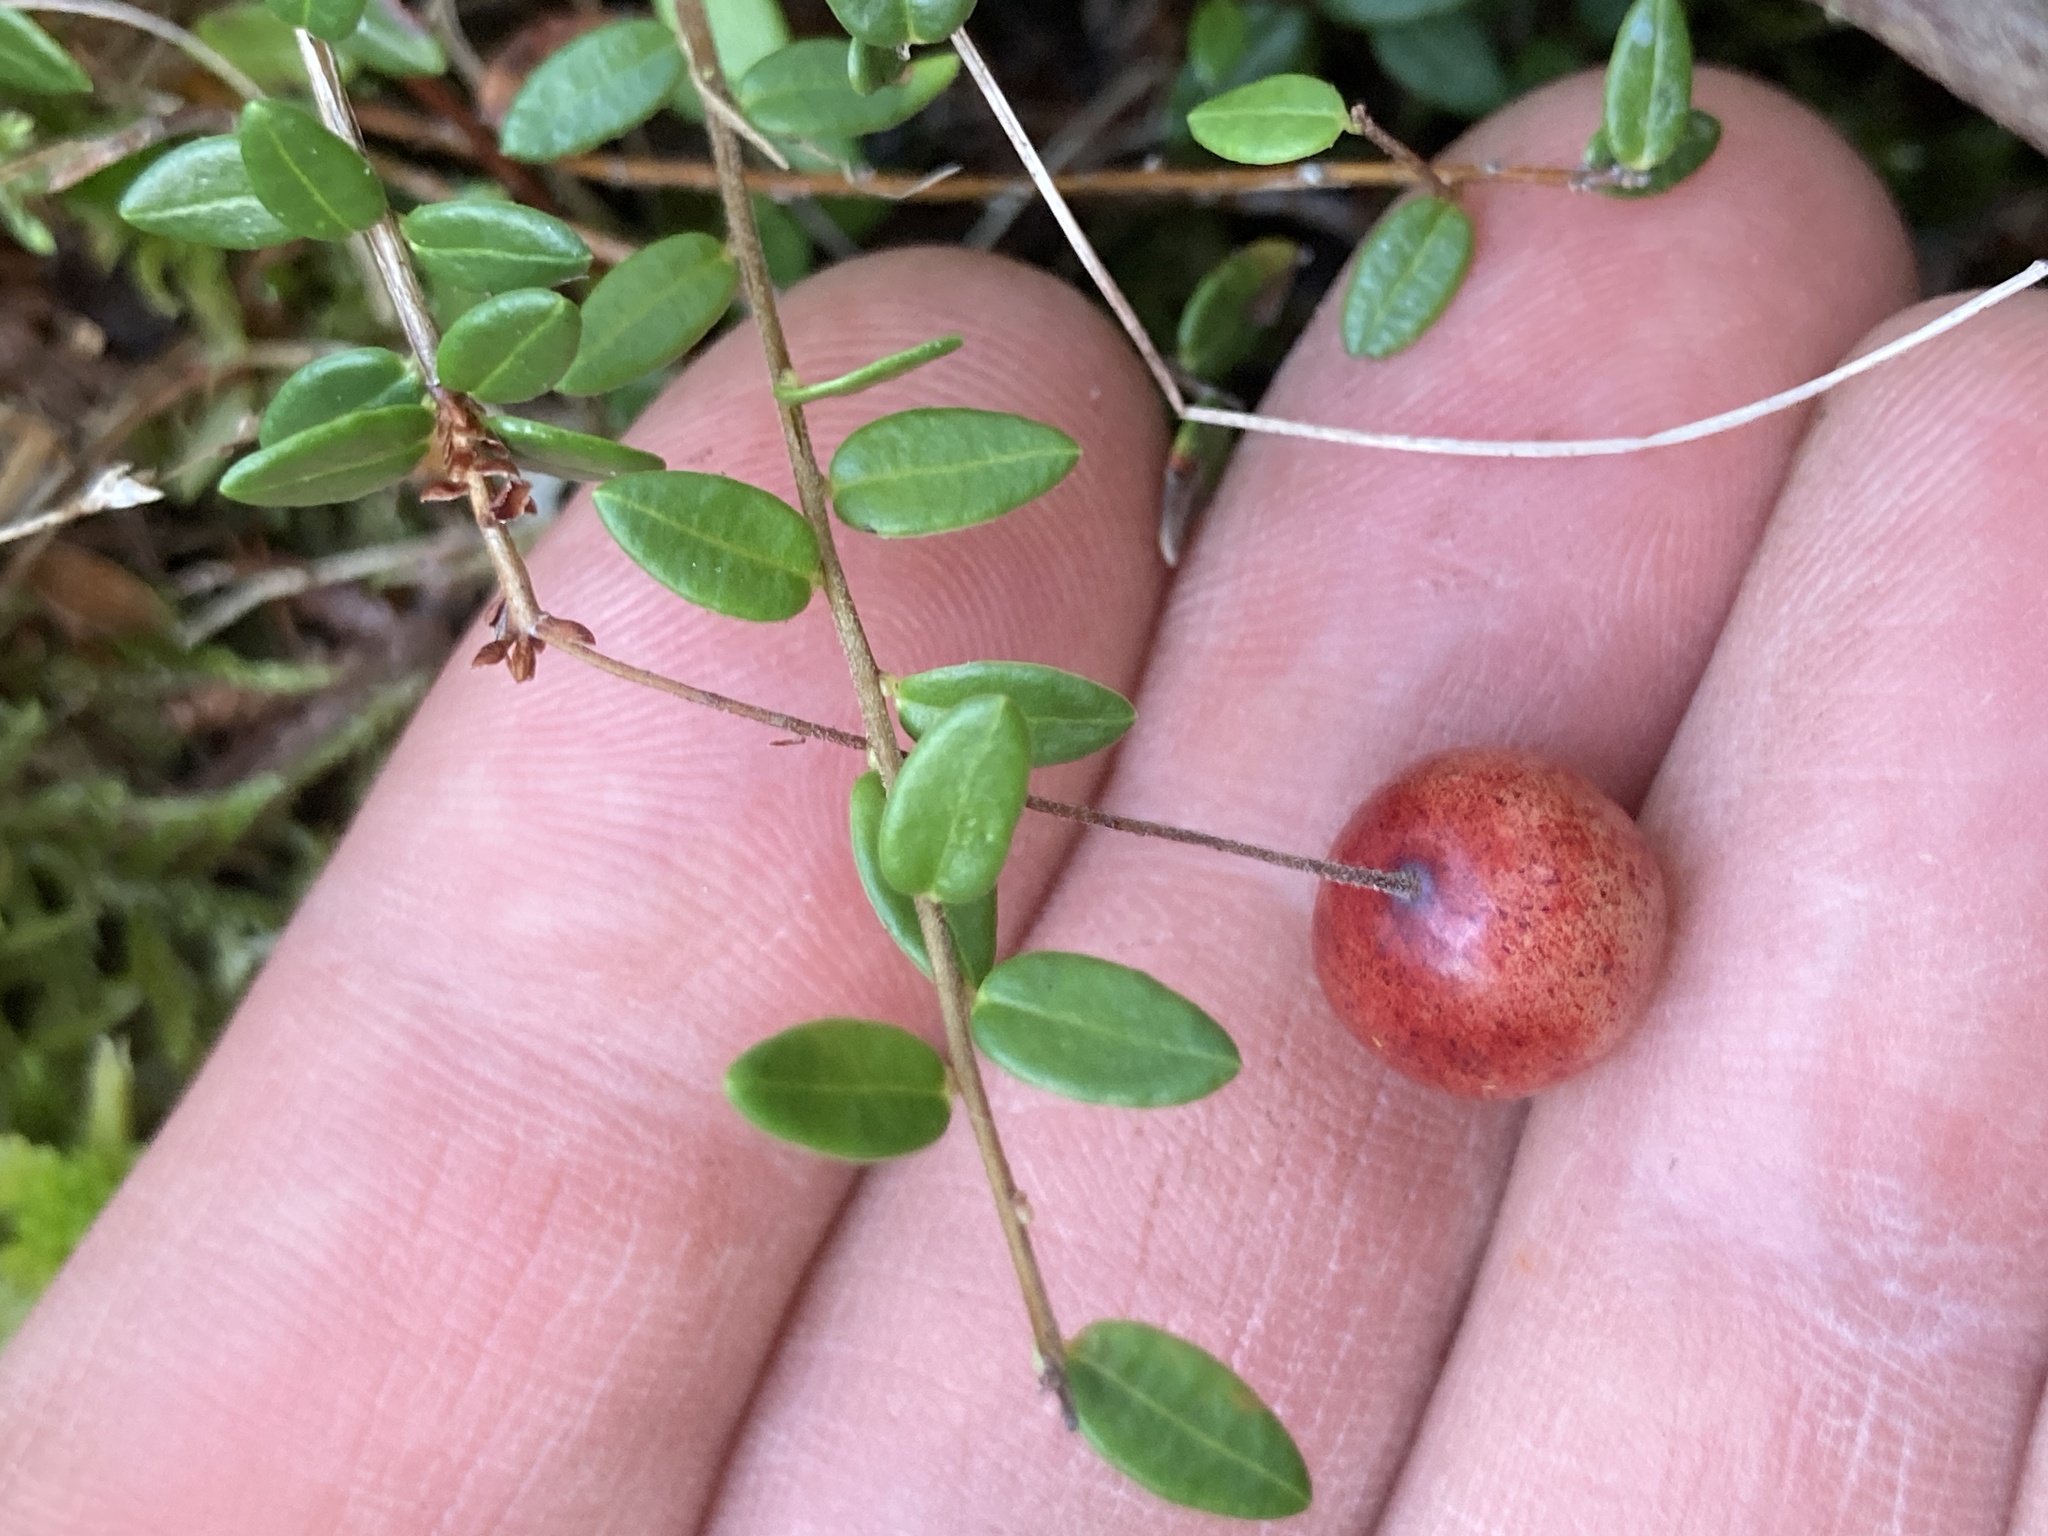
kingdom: Plantae
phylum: Tracheophyta
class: Magnoliopsida
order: Ericales
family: Ericaceae
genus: Vaccinium
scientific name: Vaccinium oxycoccos
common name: Cranberry
